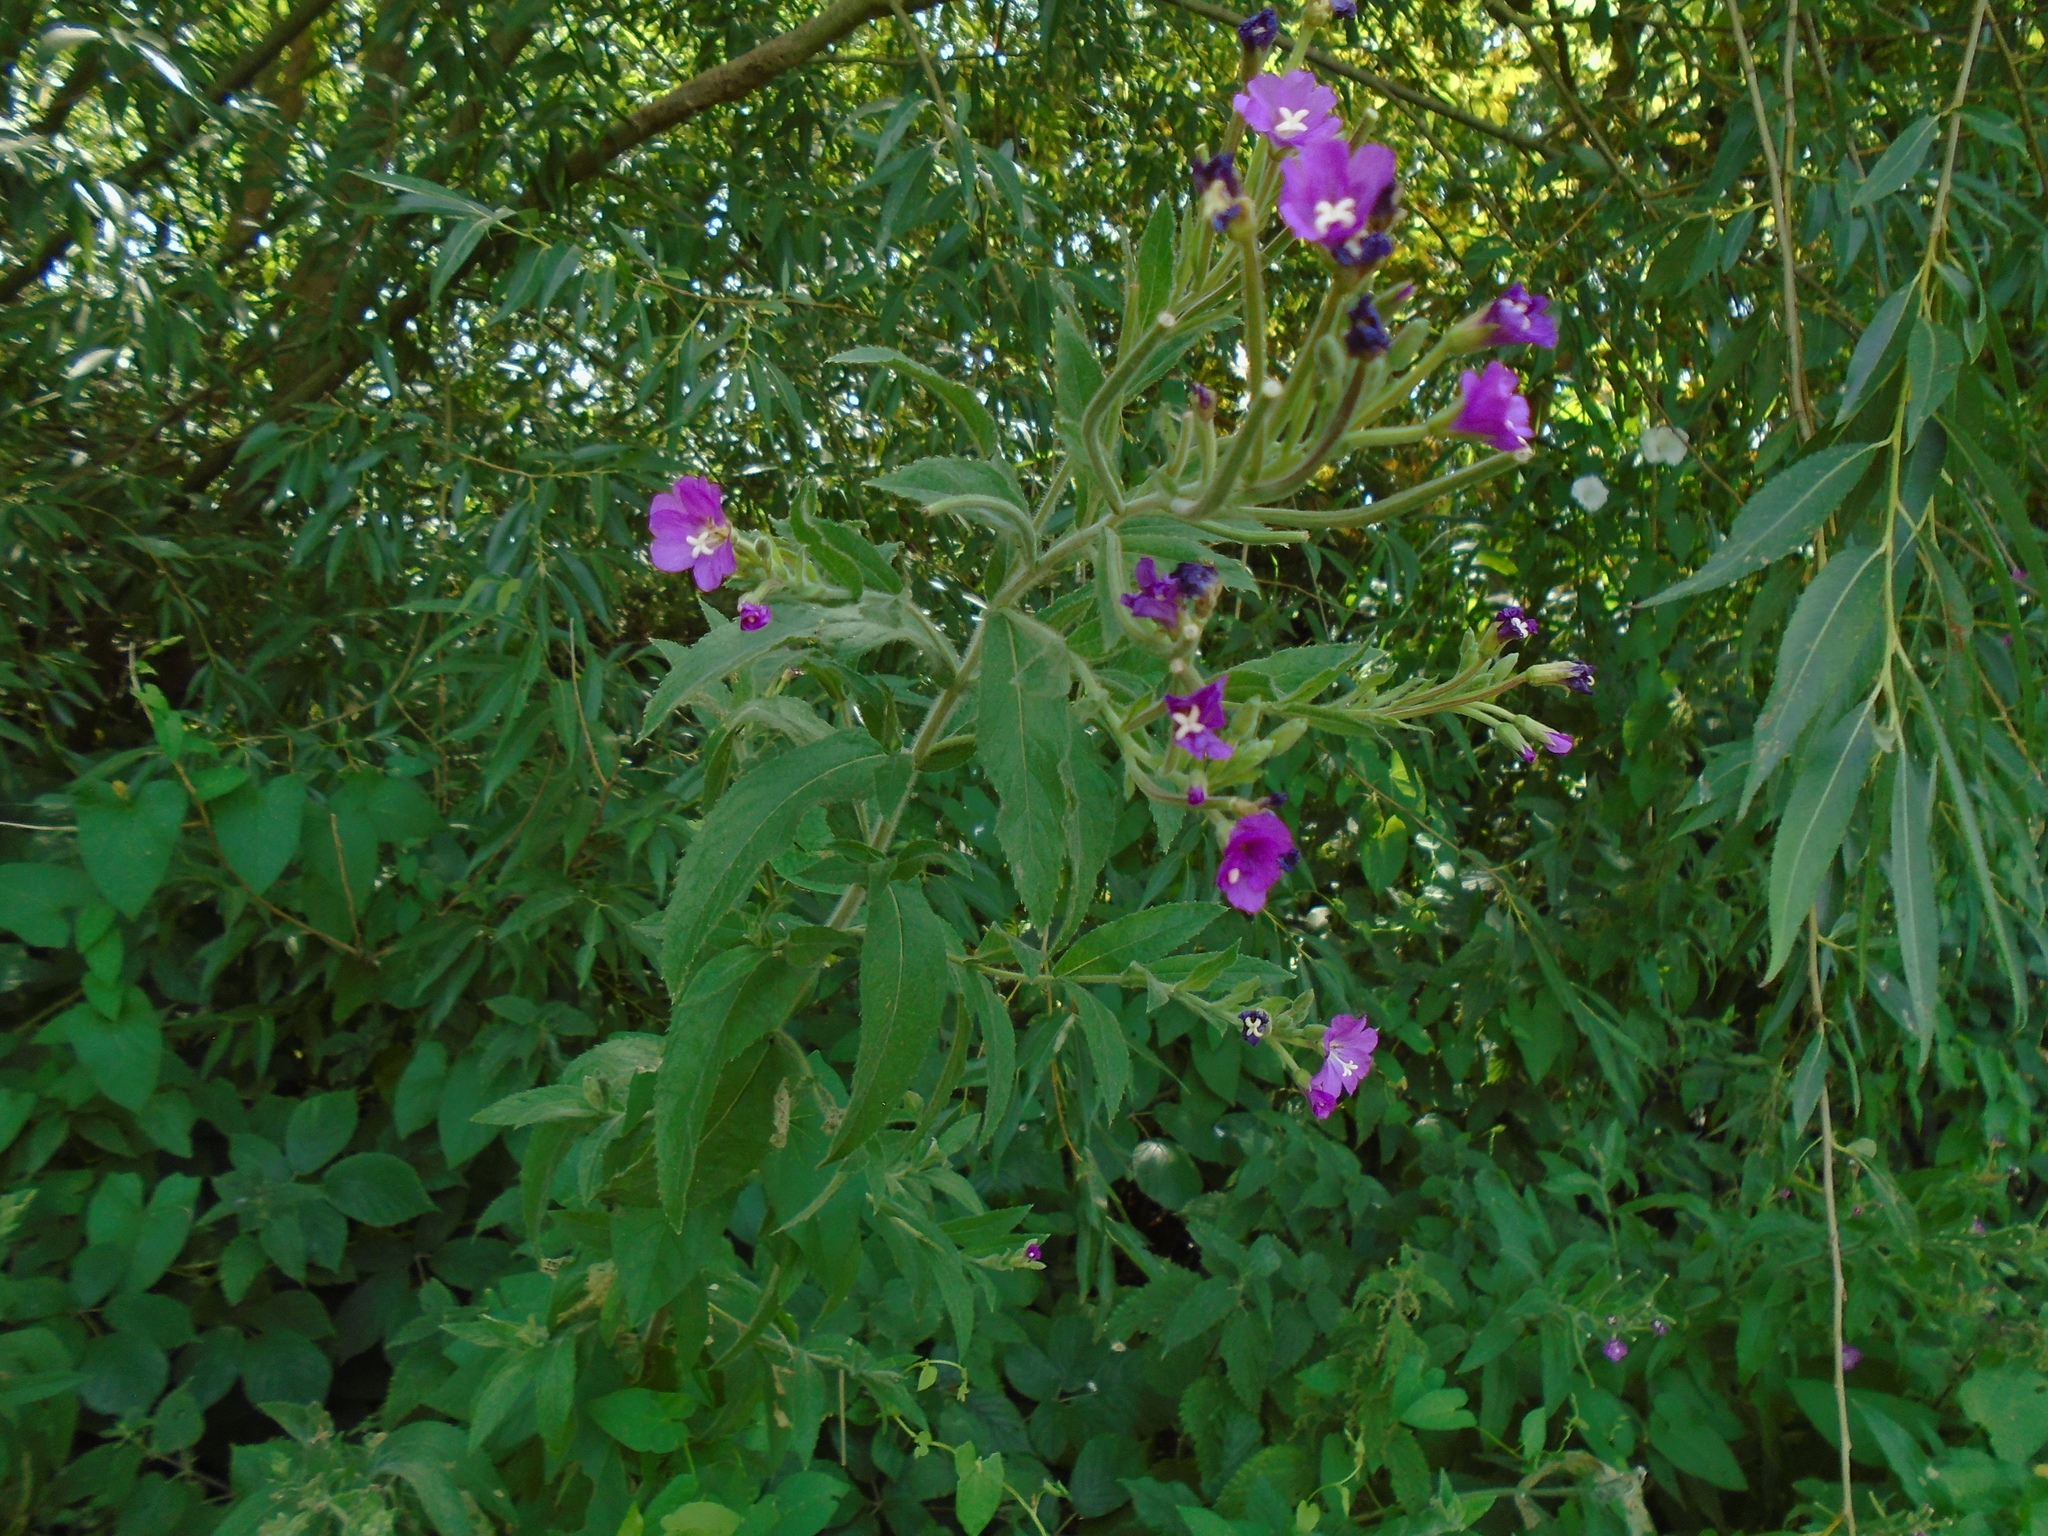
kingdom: Plantae
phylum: Tracheophyta
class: Magnoliopsida
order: Myrtales
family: Onagraceae
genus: Epilobium
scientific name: Epilobium hirsutum
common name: Great willowherb
